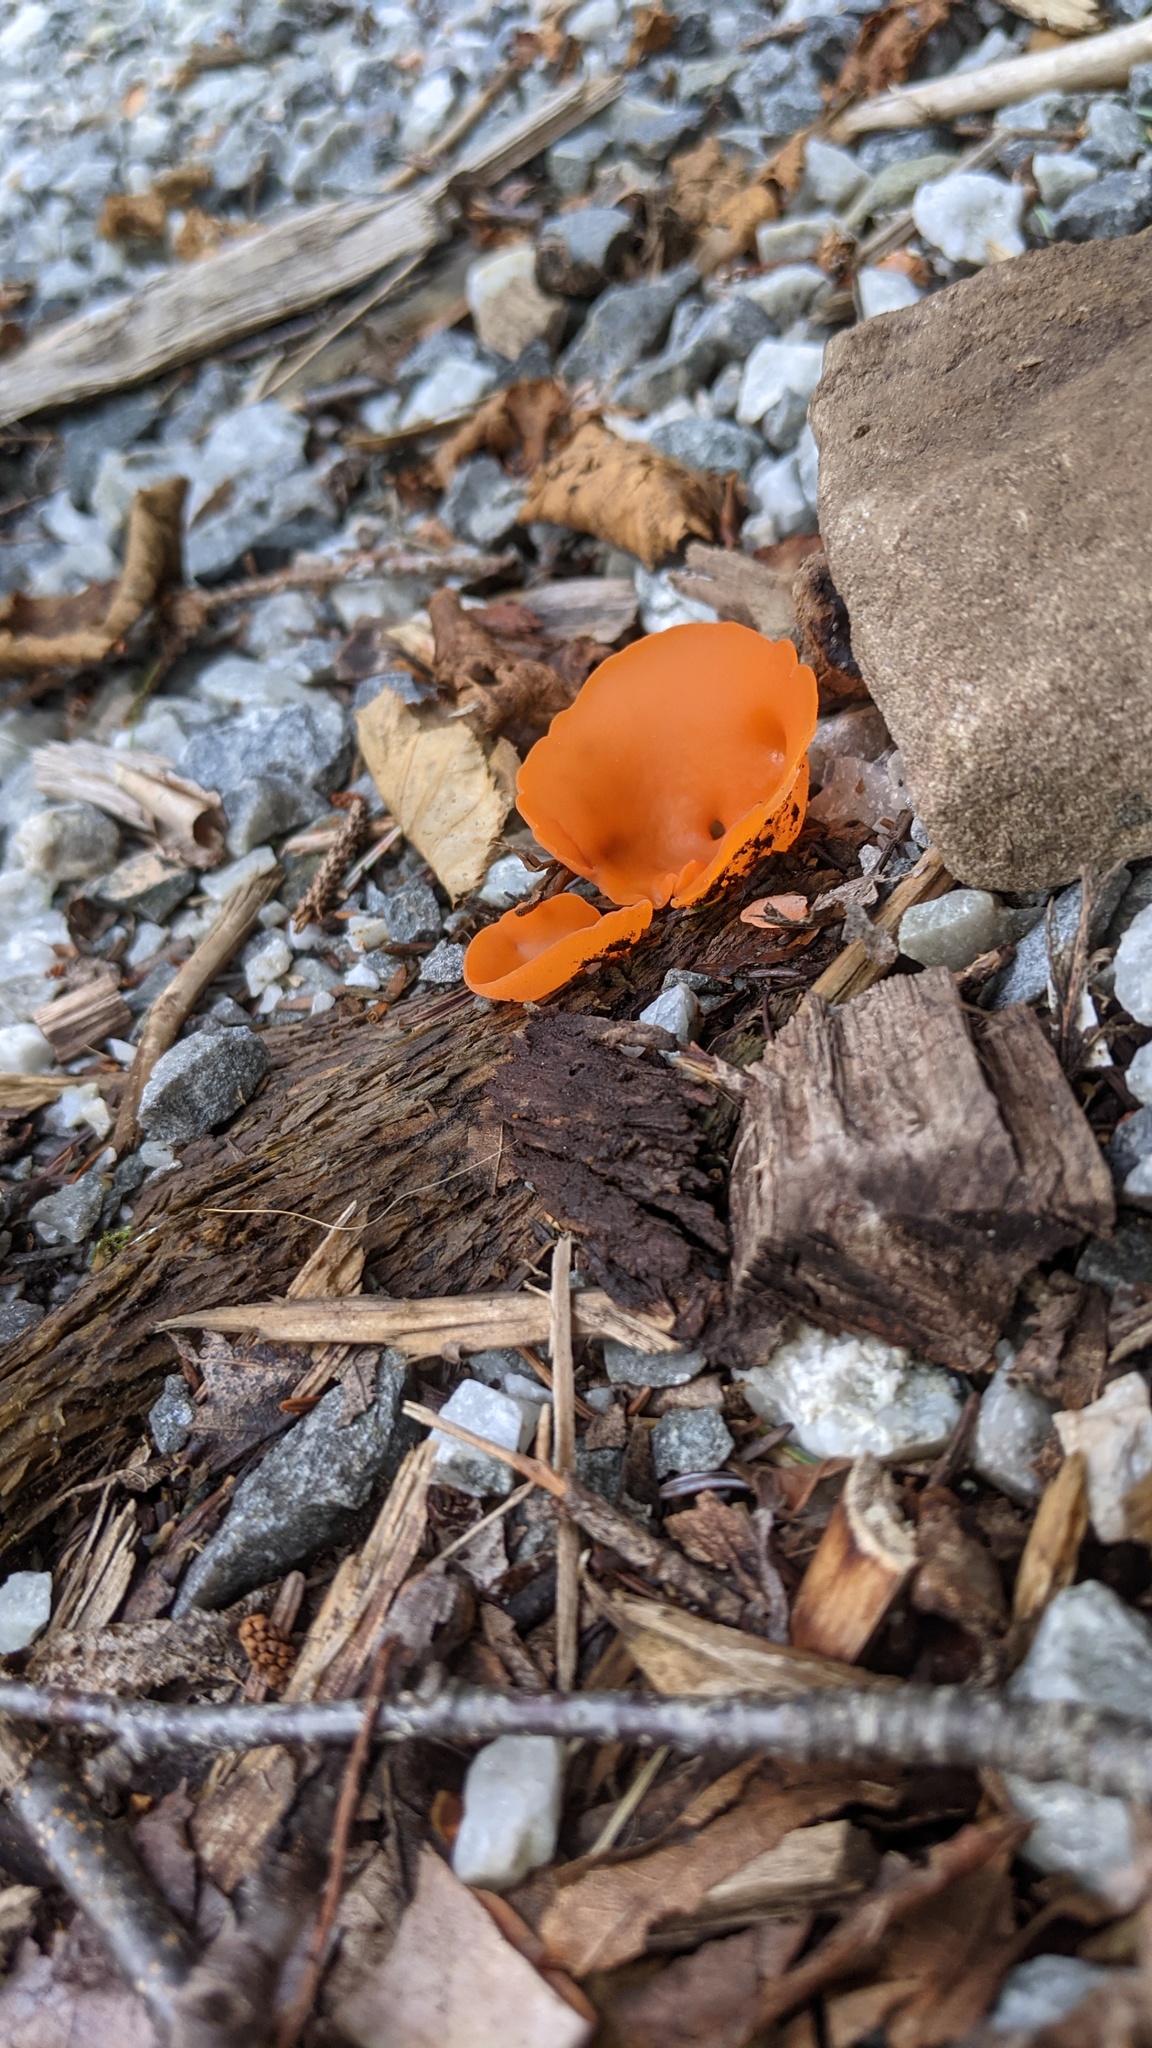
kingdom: Fungi
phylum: Ascomycota
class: Pezizomycetes
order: Pezizales
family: Pyronemataceae
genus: Aleuria
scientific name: Aleuria aurantia
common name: Orange peel fungus
